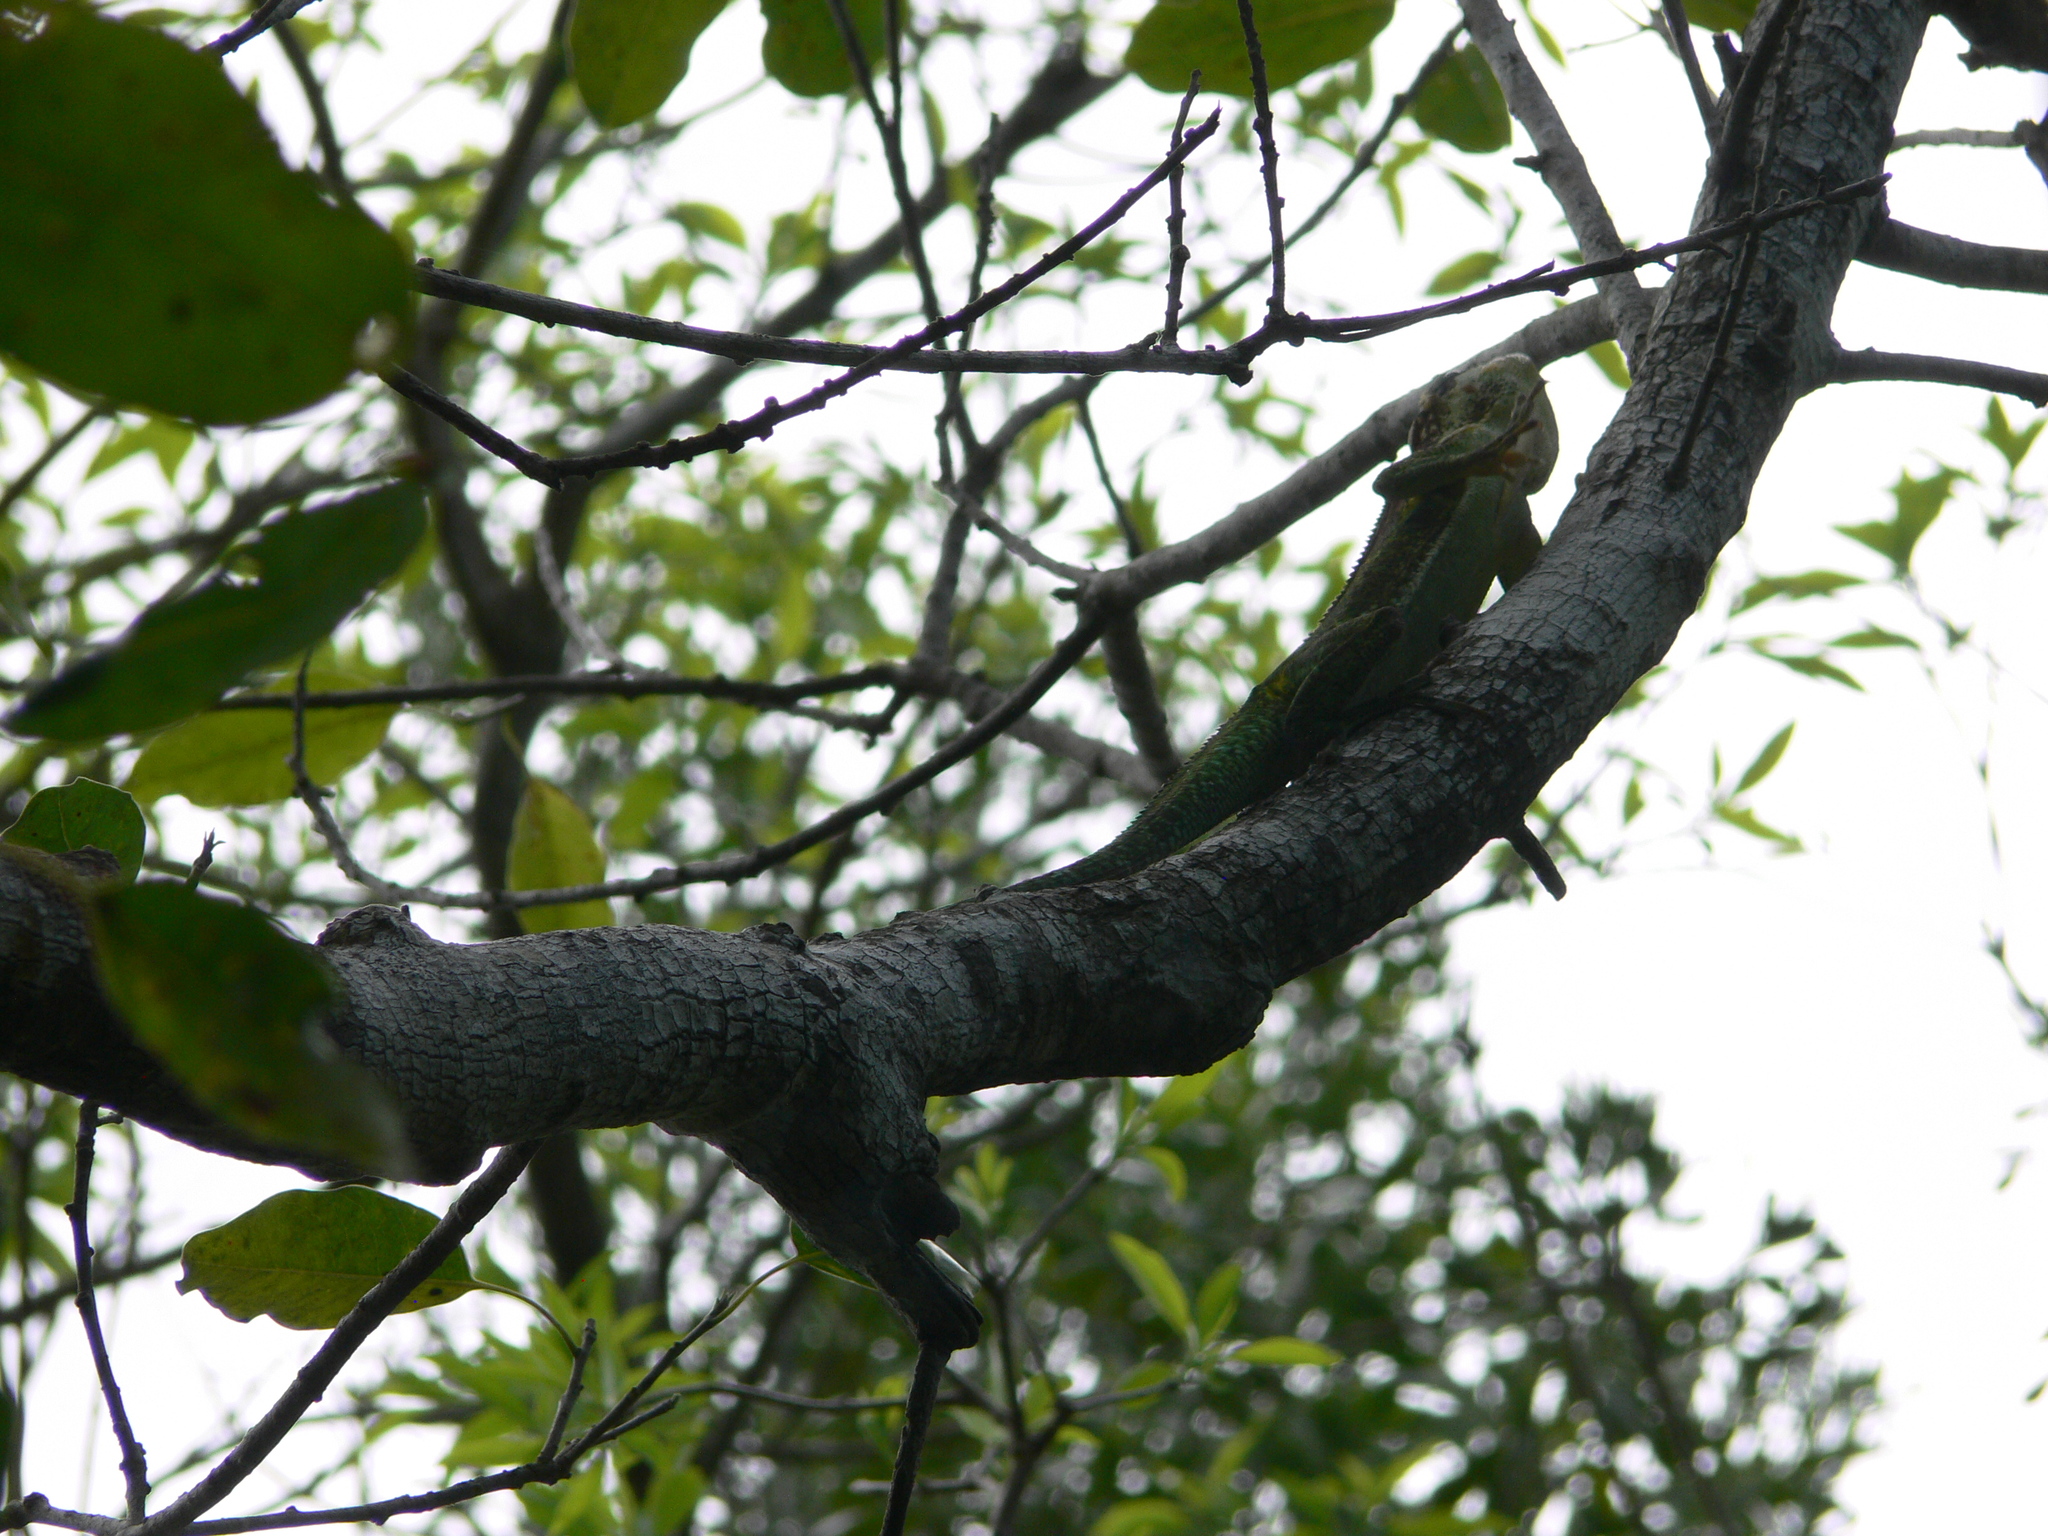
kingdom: Animalia
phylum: Chordata
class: Squamata
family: Dactyloidae
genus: Anolis
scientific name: Anolis equestris
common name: Knight anole
